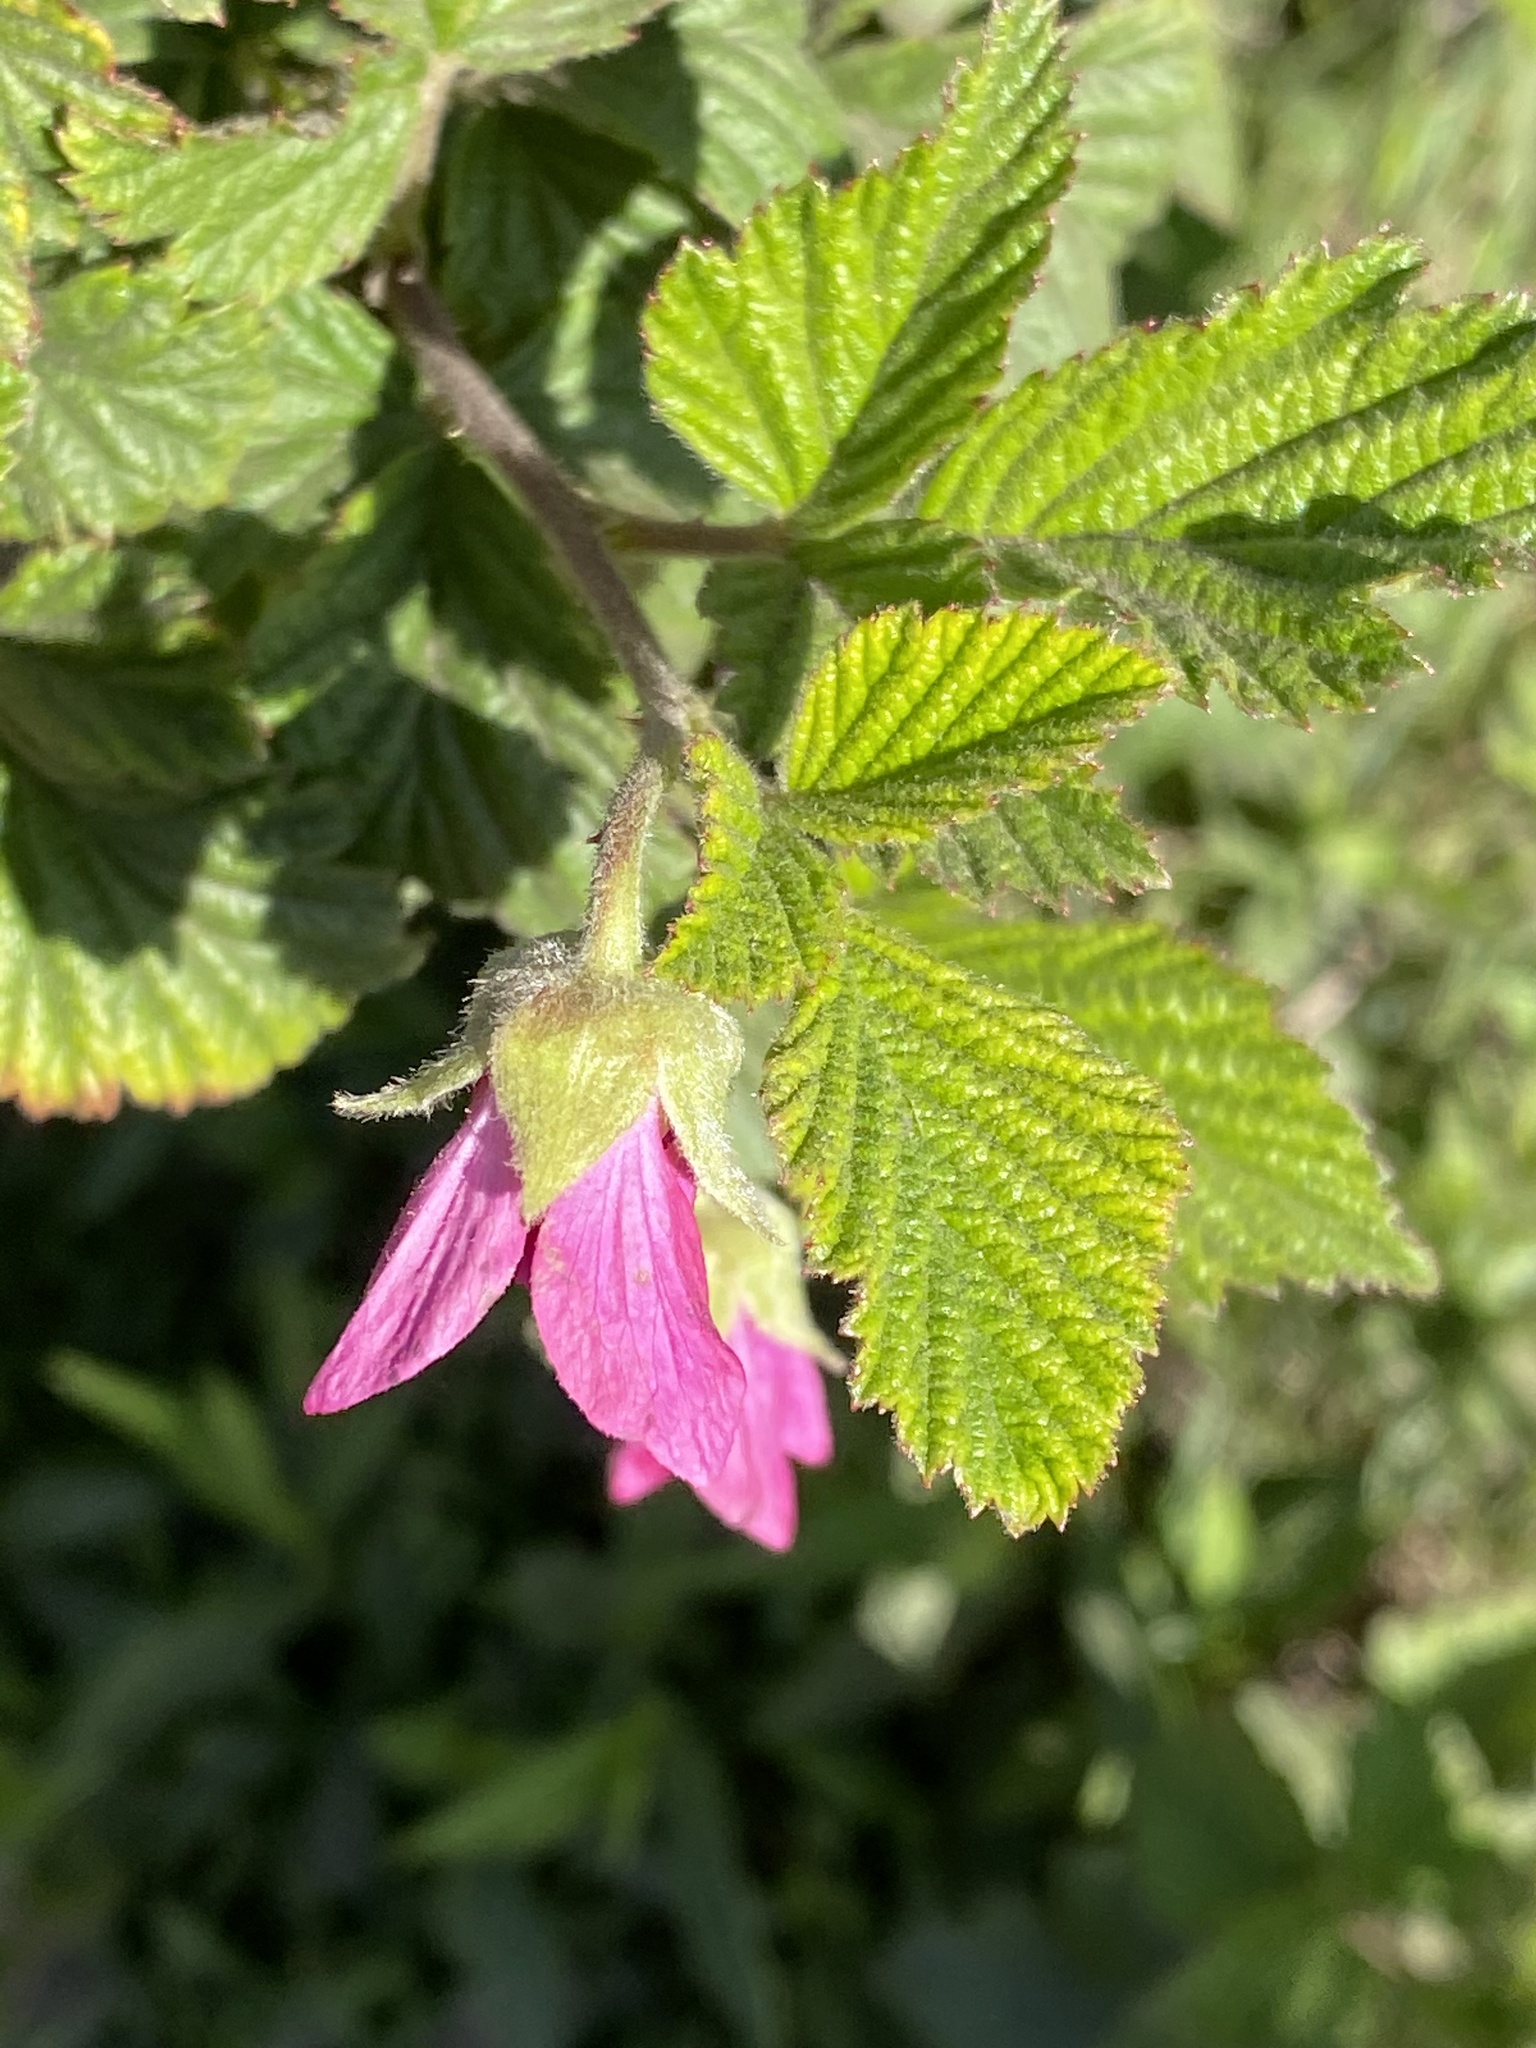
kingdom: Plantae
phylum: Tracheophyta
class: Magnoliopsida
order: Rosales
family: Rosaceae
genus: Rubus
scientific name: Rubus spectabilis
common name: Salmonberry
